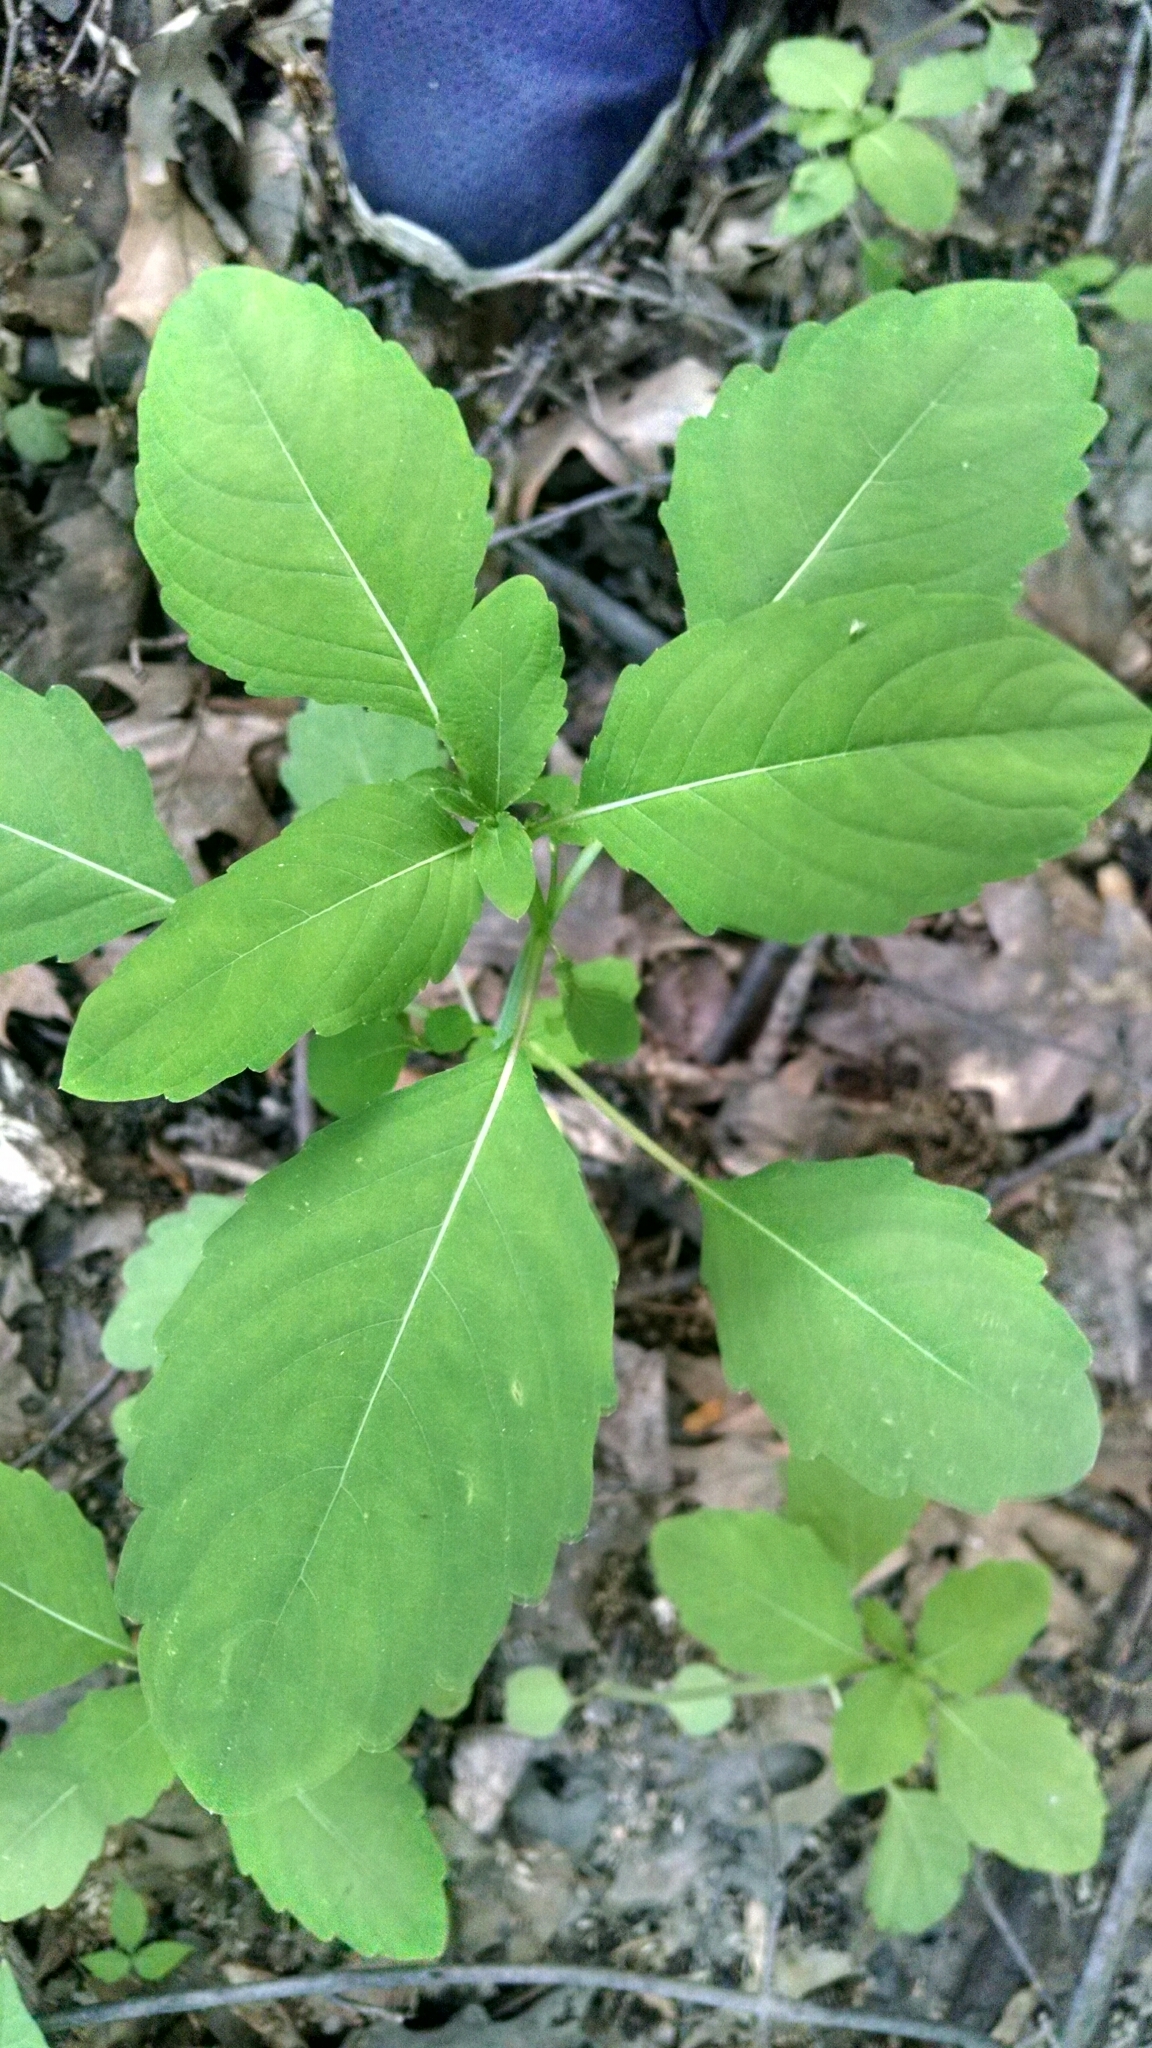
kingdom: Plantae
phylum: Tracheophyta
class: Magnoliopsida
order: Ericales
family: Balsaminaceae
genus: Impatiens
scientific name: Impatiens
